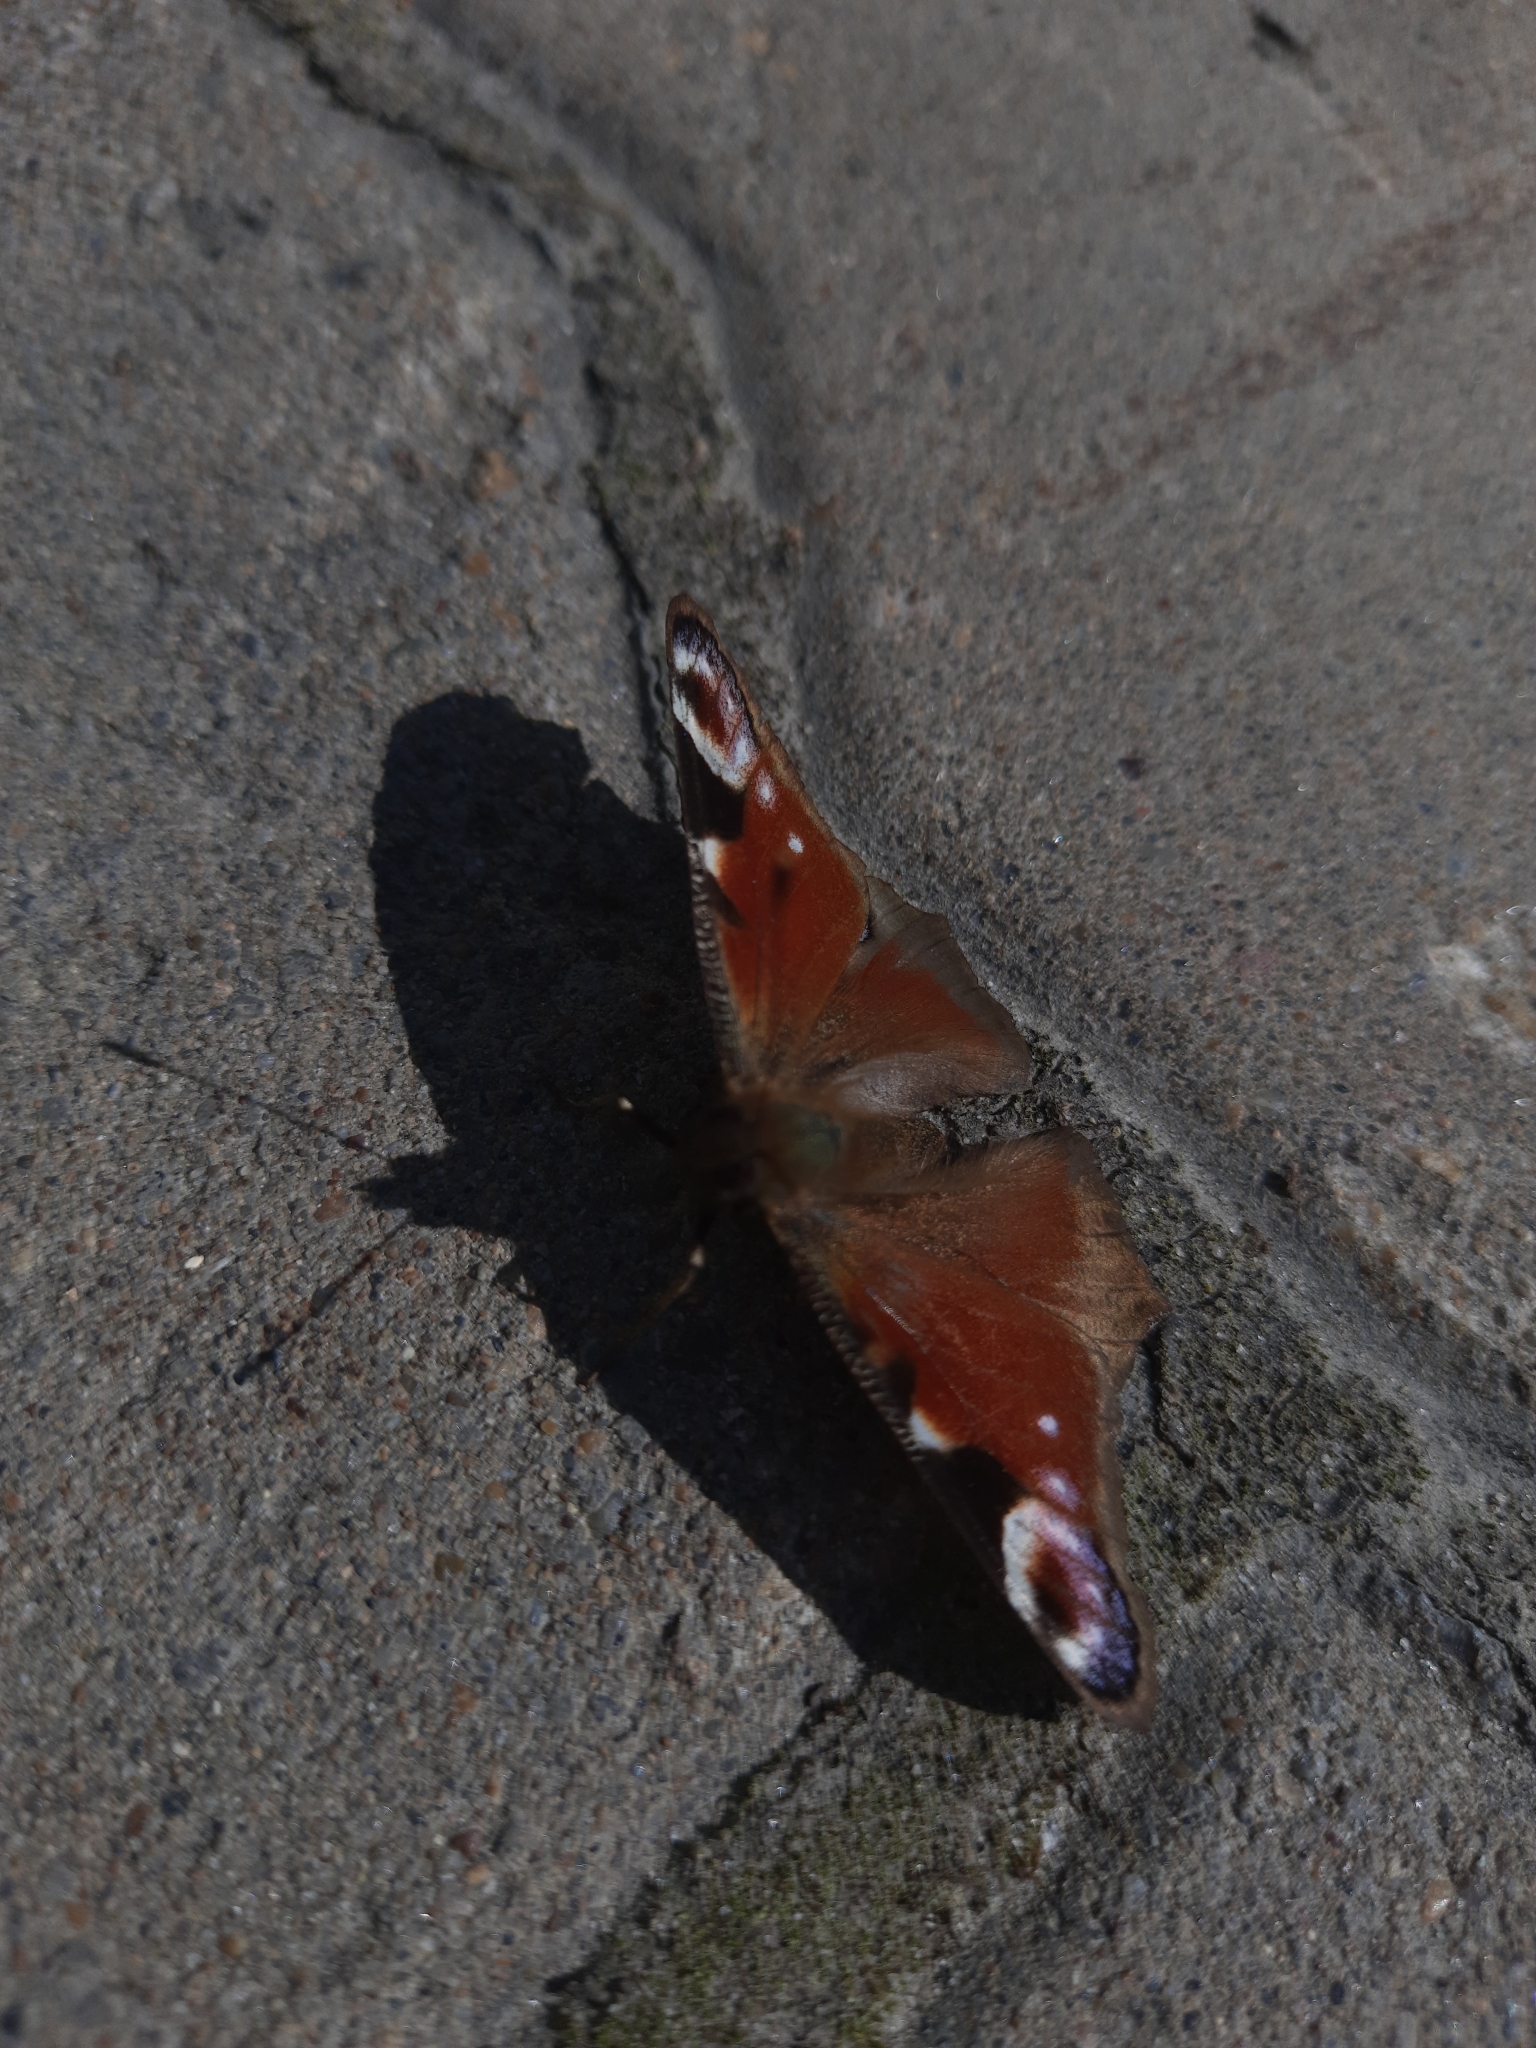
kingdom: Animalia
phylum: Arthropoda
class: Insecta
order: Lepidoptera
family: Nymphalidae
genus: Aglais
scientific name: Aglais io
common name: Peacock
